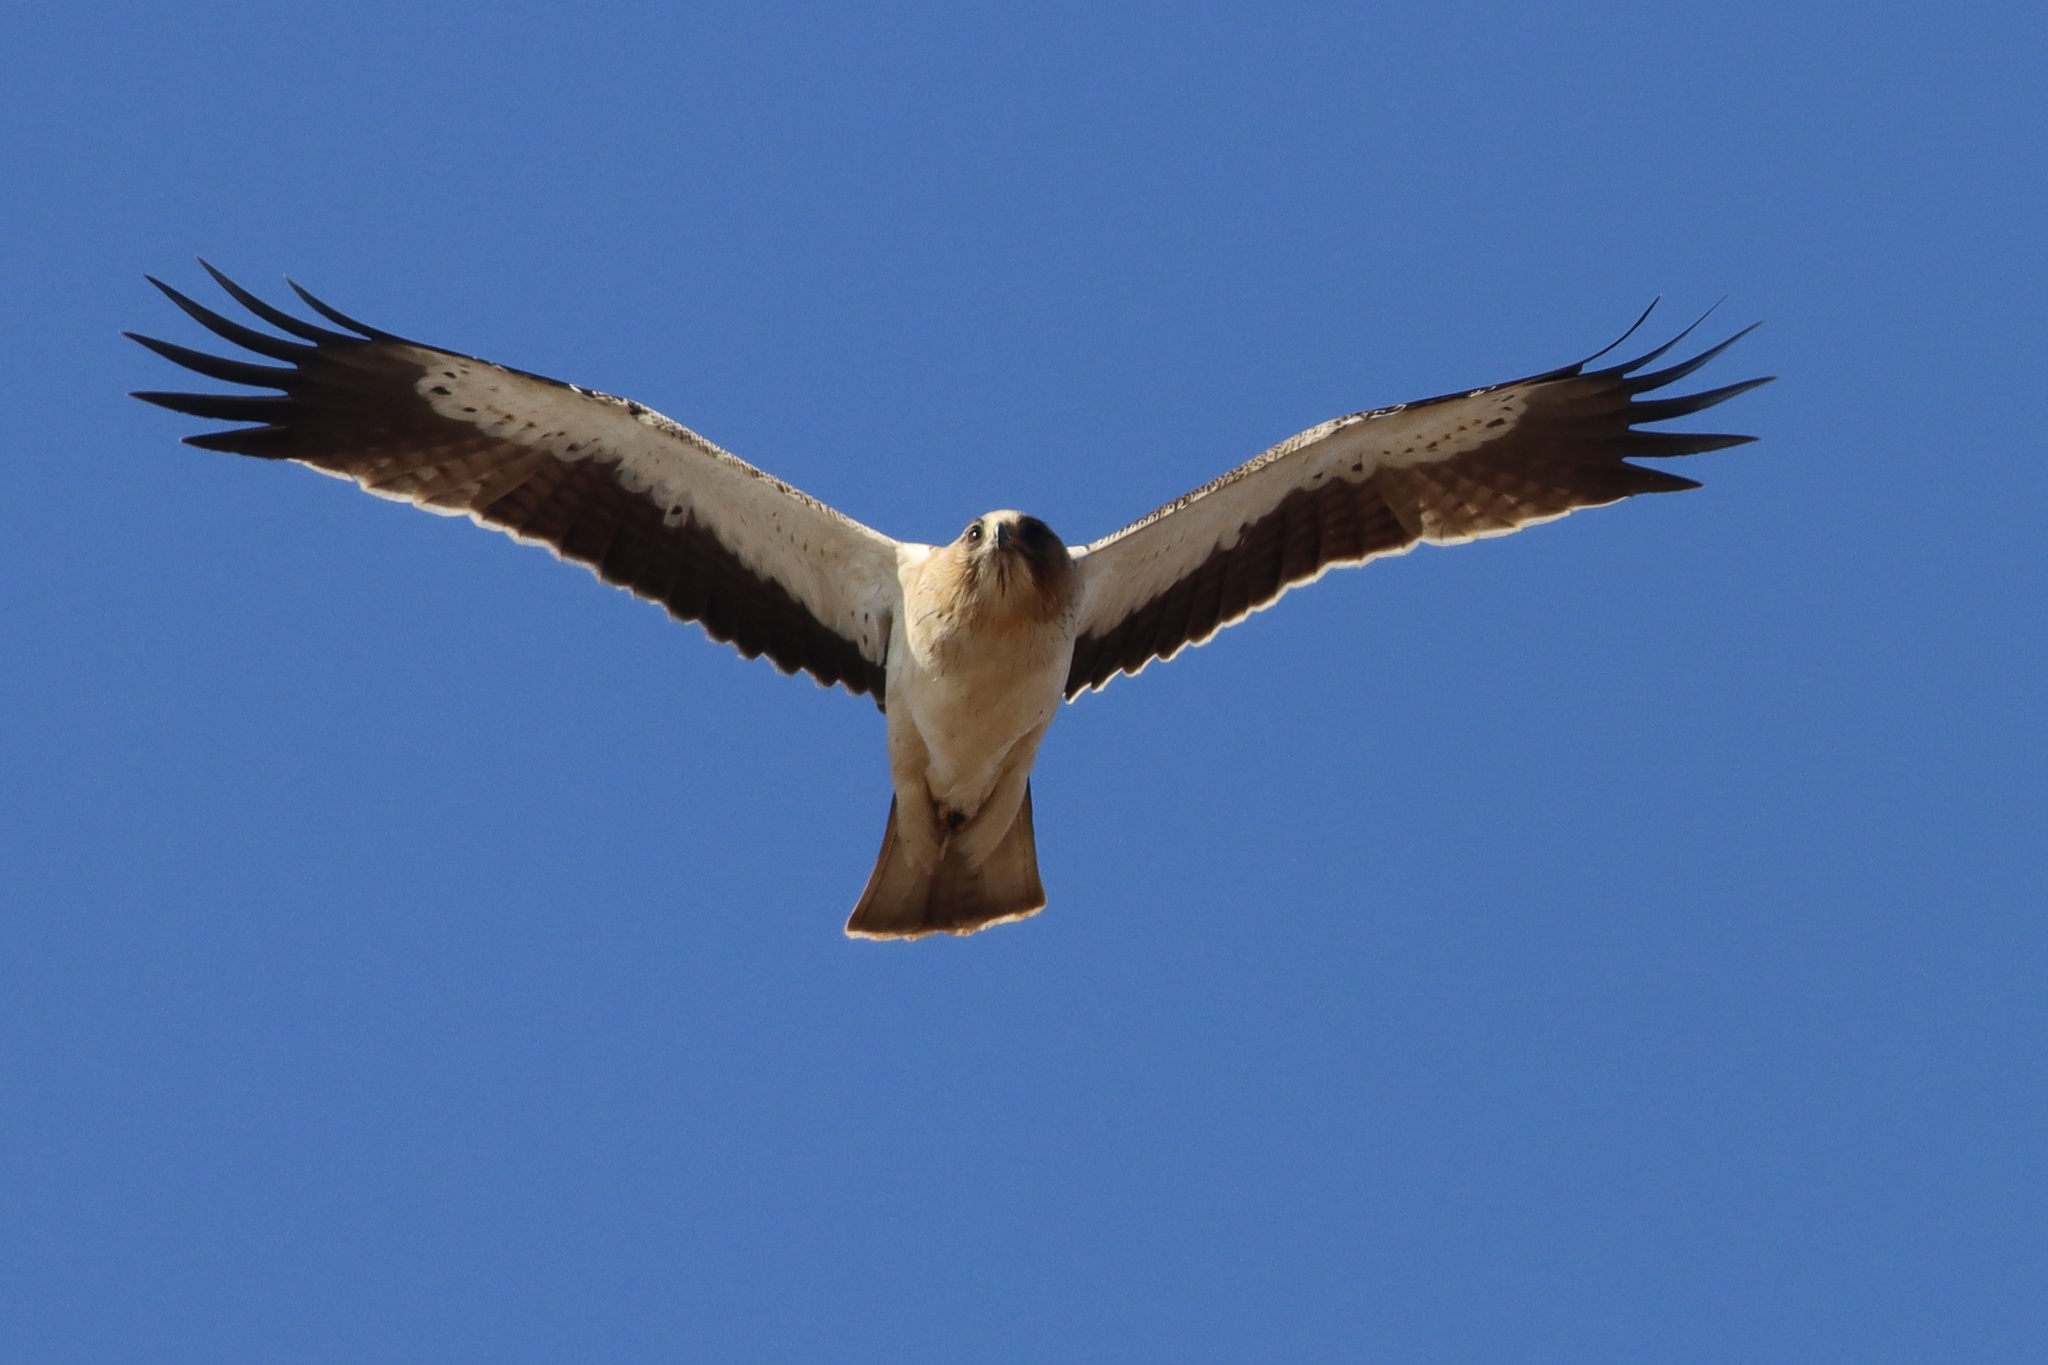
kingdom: Animalia
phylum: Chordata
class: Aves
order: Accipitriformes
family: Accipitridae
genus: Hieraaetus
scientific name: Hieraaetus pennatus
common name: Booted eagle
